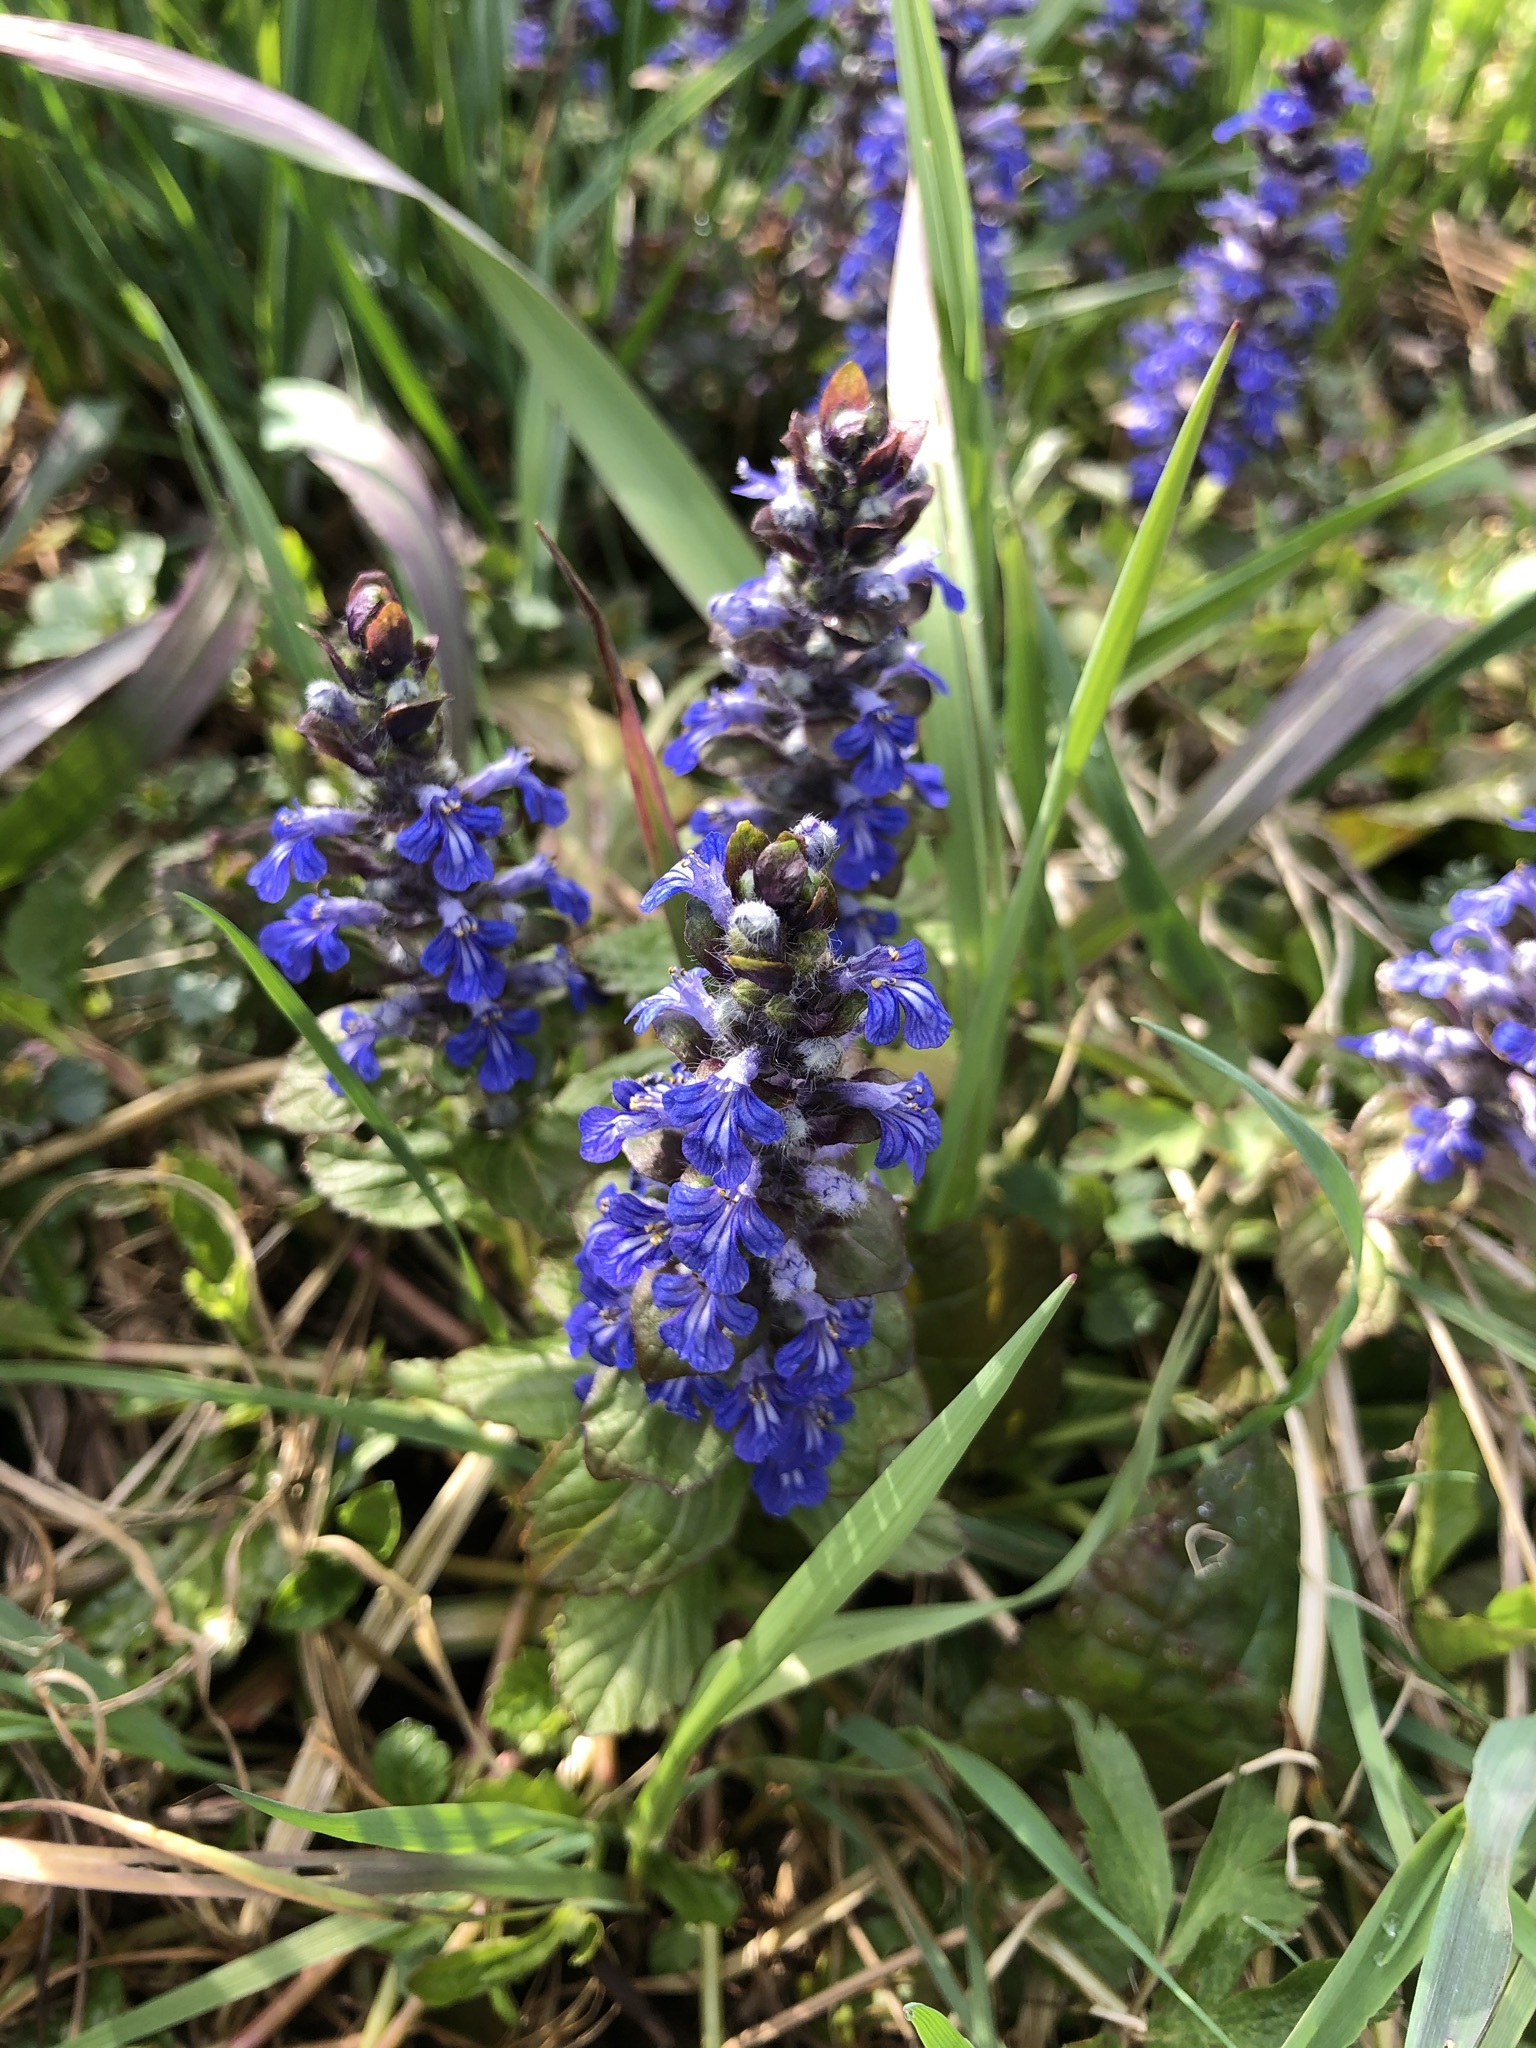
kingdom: Plantae
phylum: Tracheophyta
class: Magnoliopsida
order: Lamiales
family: Lamiaceae
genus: Ajuga
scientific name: Ajuga reptans
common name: Bugle
